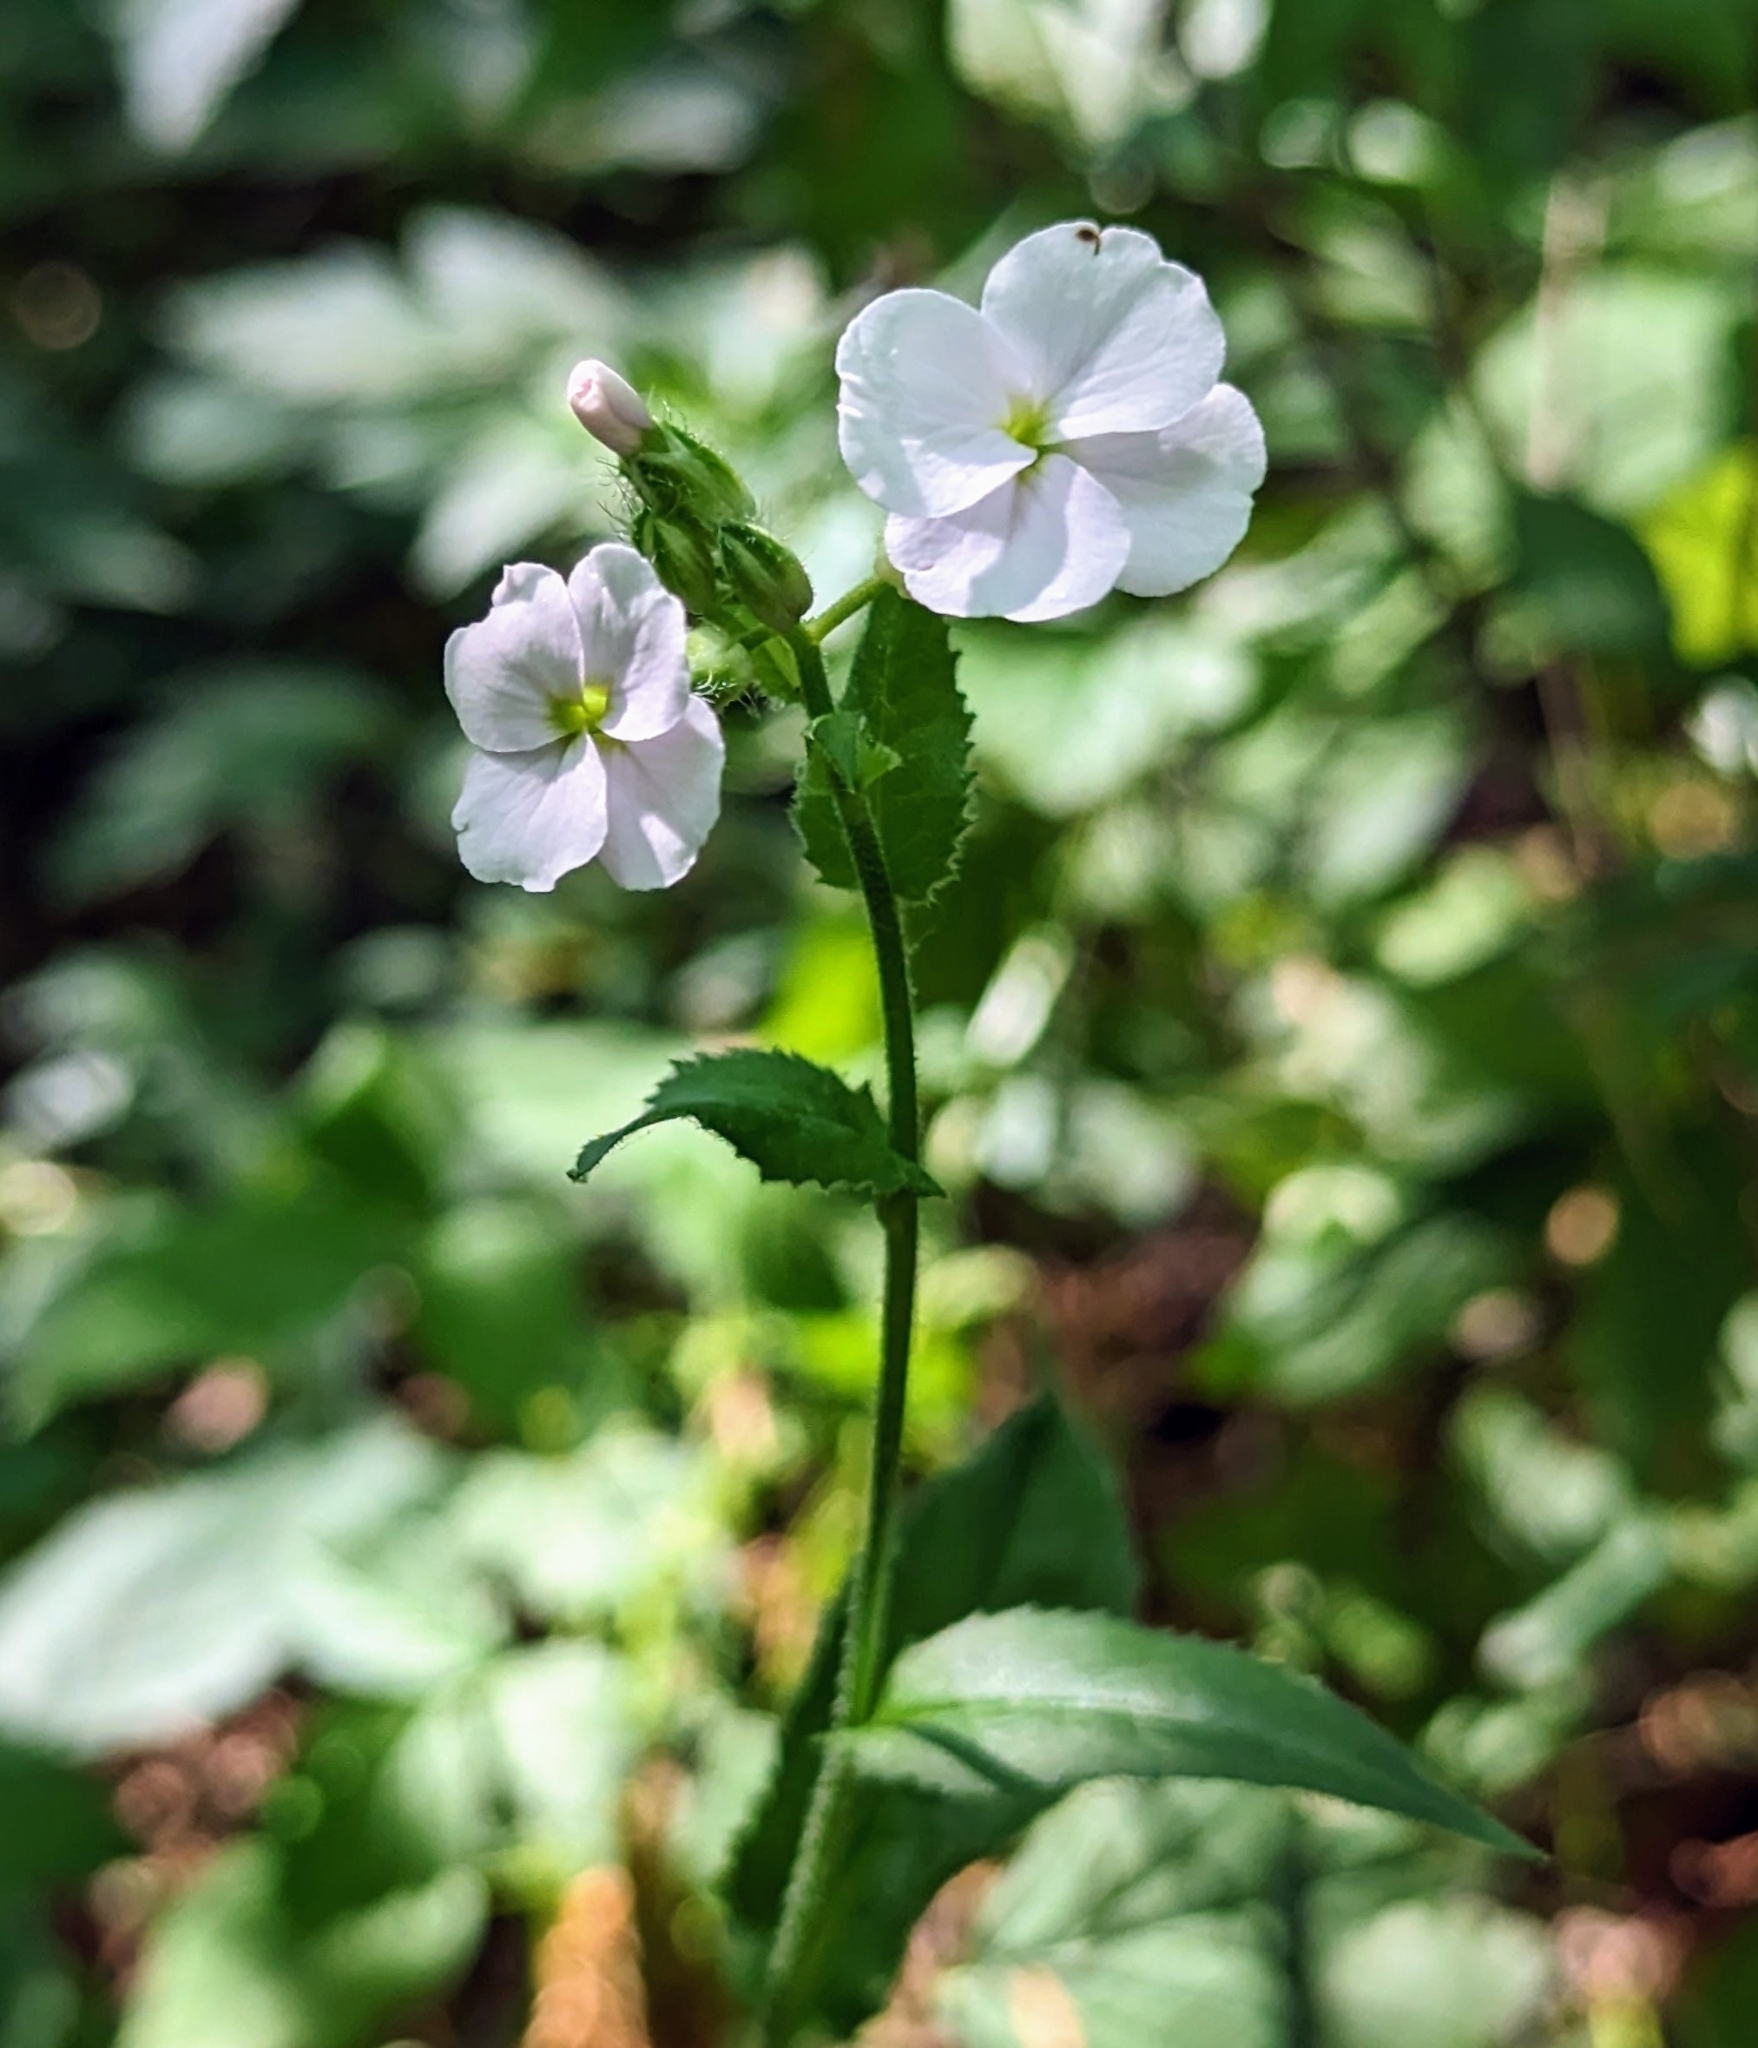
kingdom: Plantae
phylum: Tracheophyta
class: Magnoliopsida
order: Brassicales
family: Brassicaceae
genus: Hesperis
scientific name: Hesperis matronalis
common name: Dame's-violet
